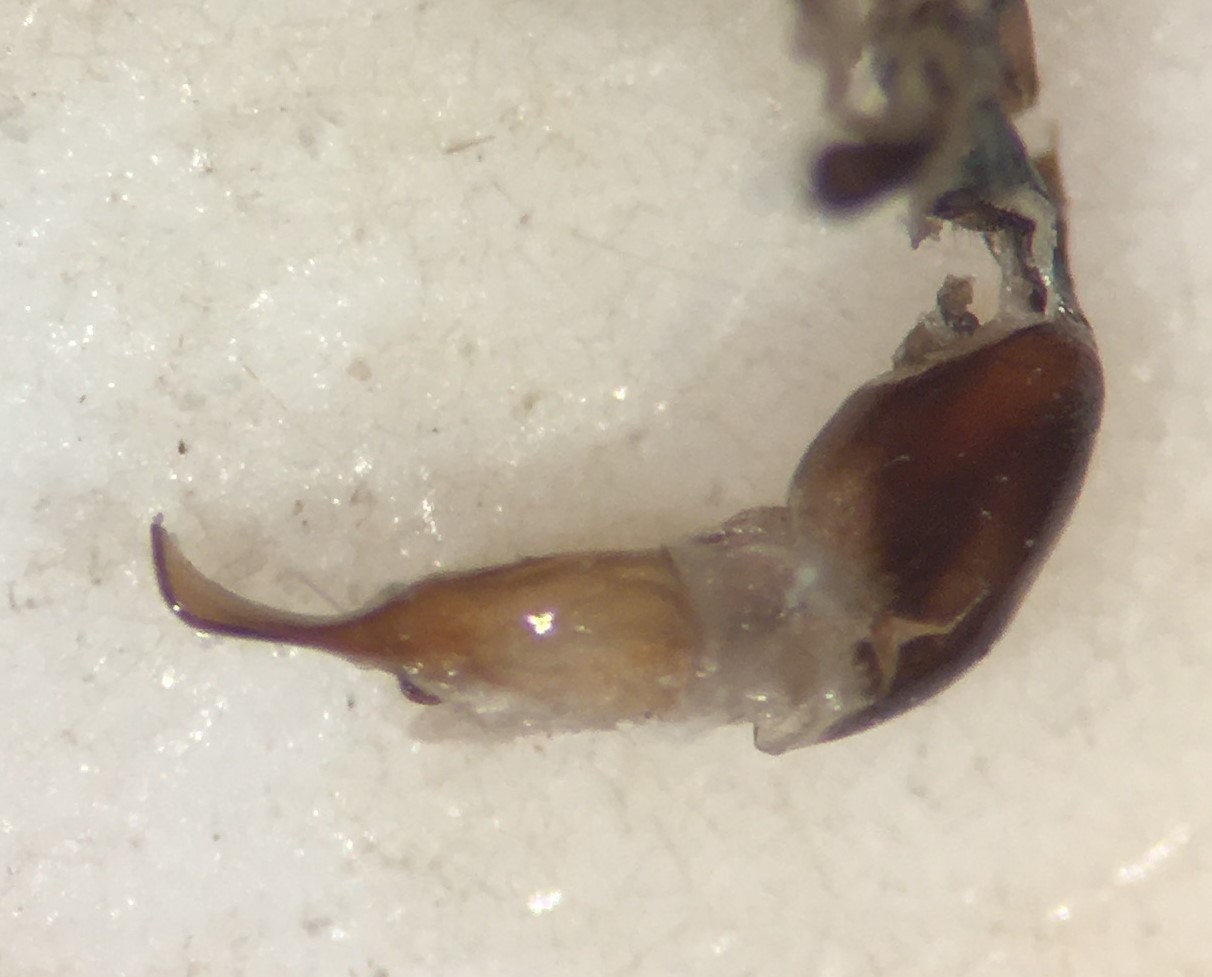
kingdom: Animalia
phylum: Arthropoda
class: Insecta
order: Hemiptera
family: Gerridae
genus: Aquarius
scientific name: Aquarius remigoides
